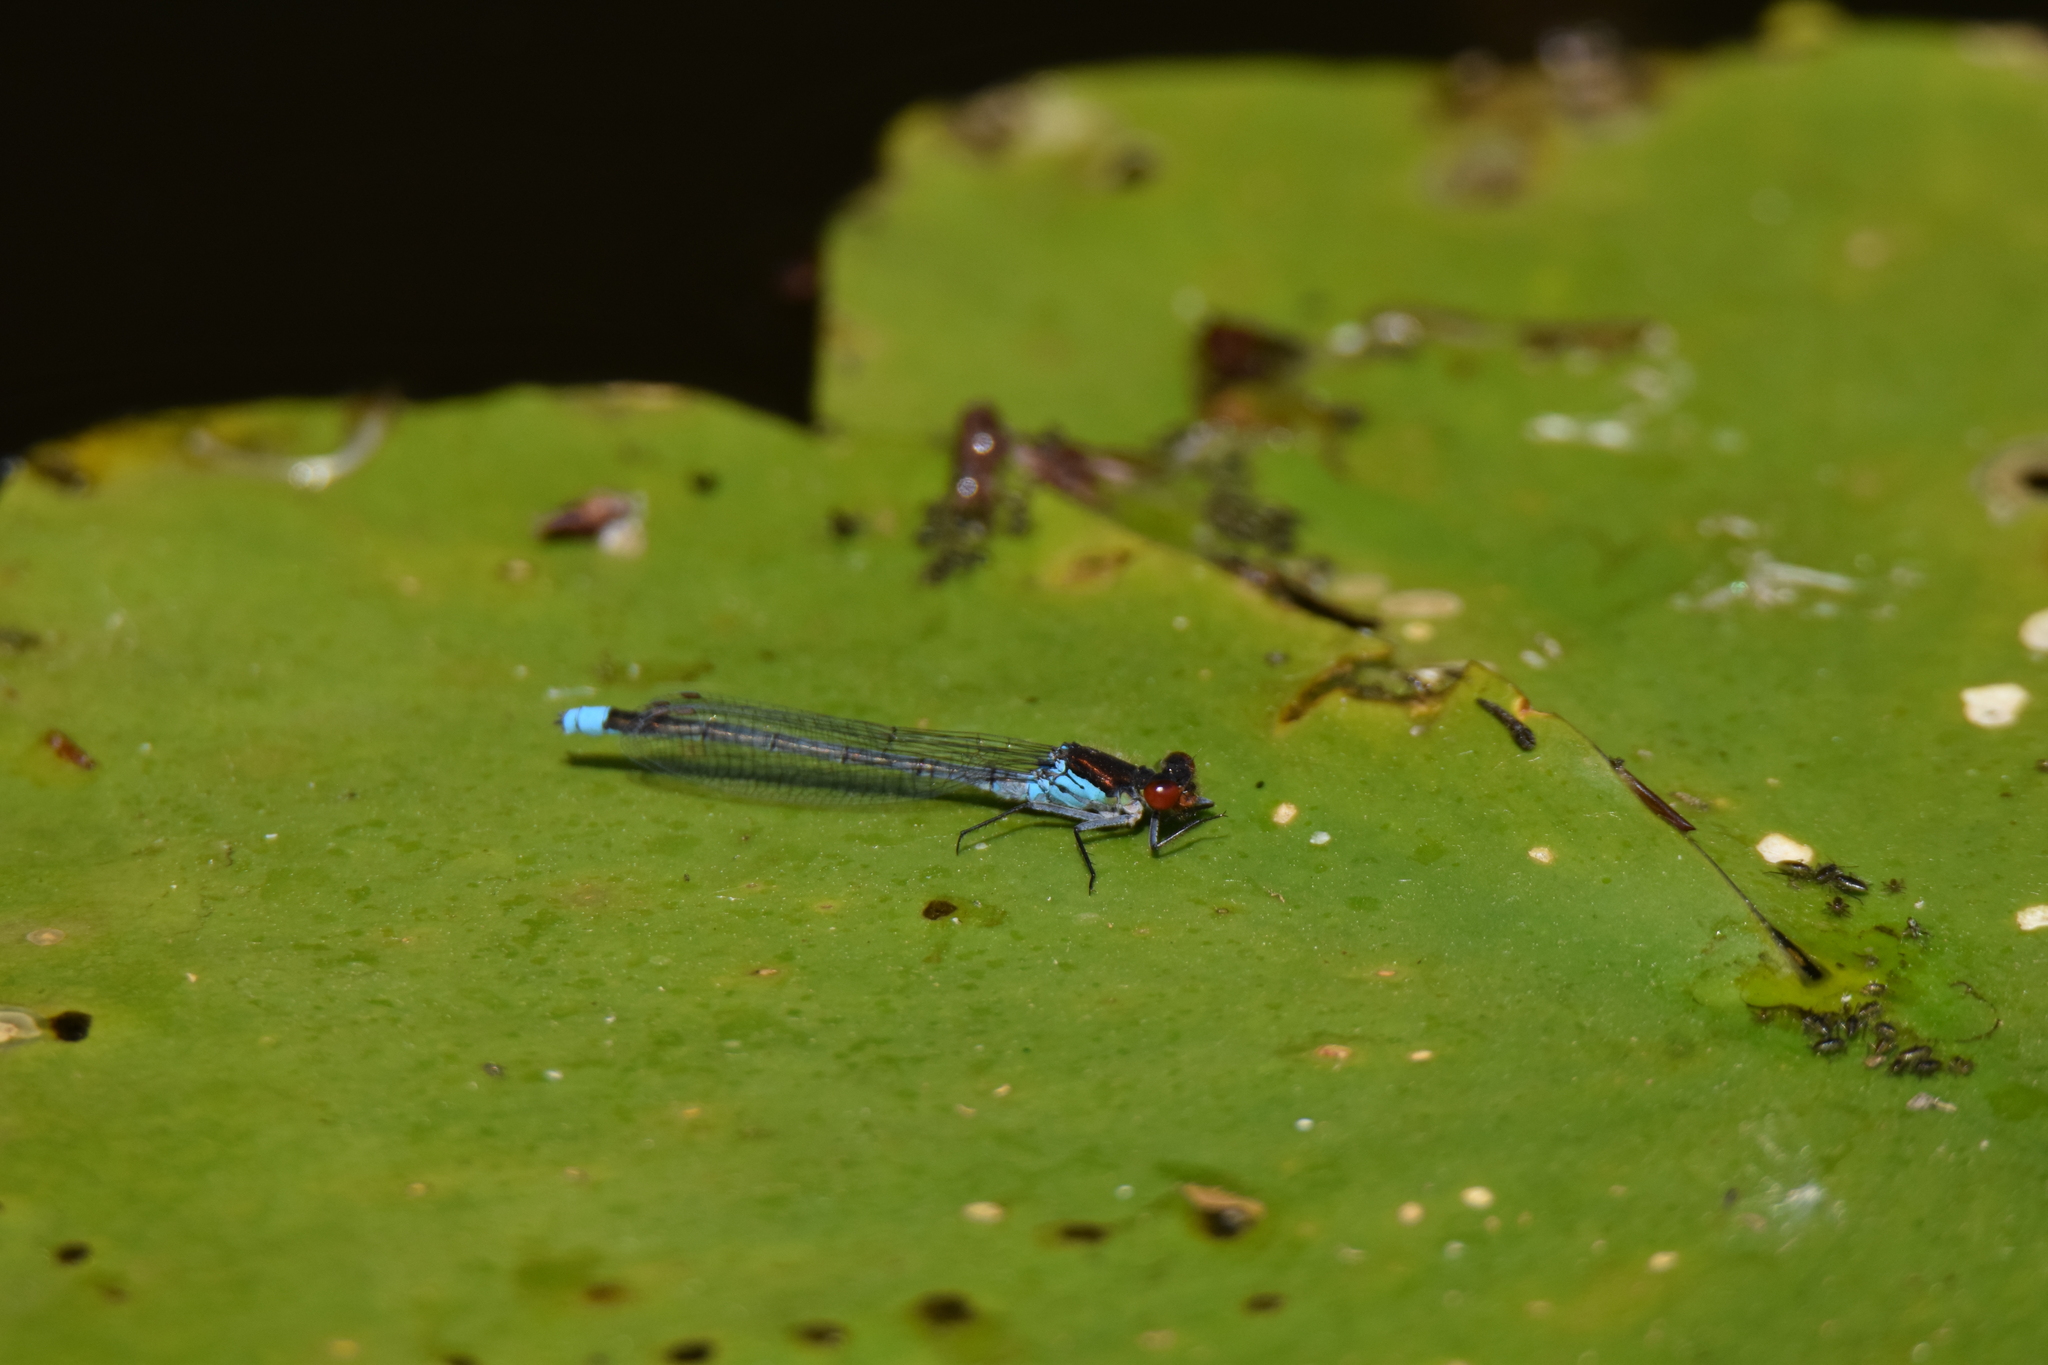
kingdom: Animalia
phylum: Arthropoda
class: Insecta
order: Odonata
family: Coenagrionidae
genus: Erythromma
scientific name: Erythromma najas
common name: Red-eyed damselfly
